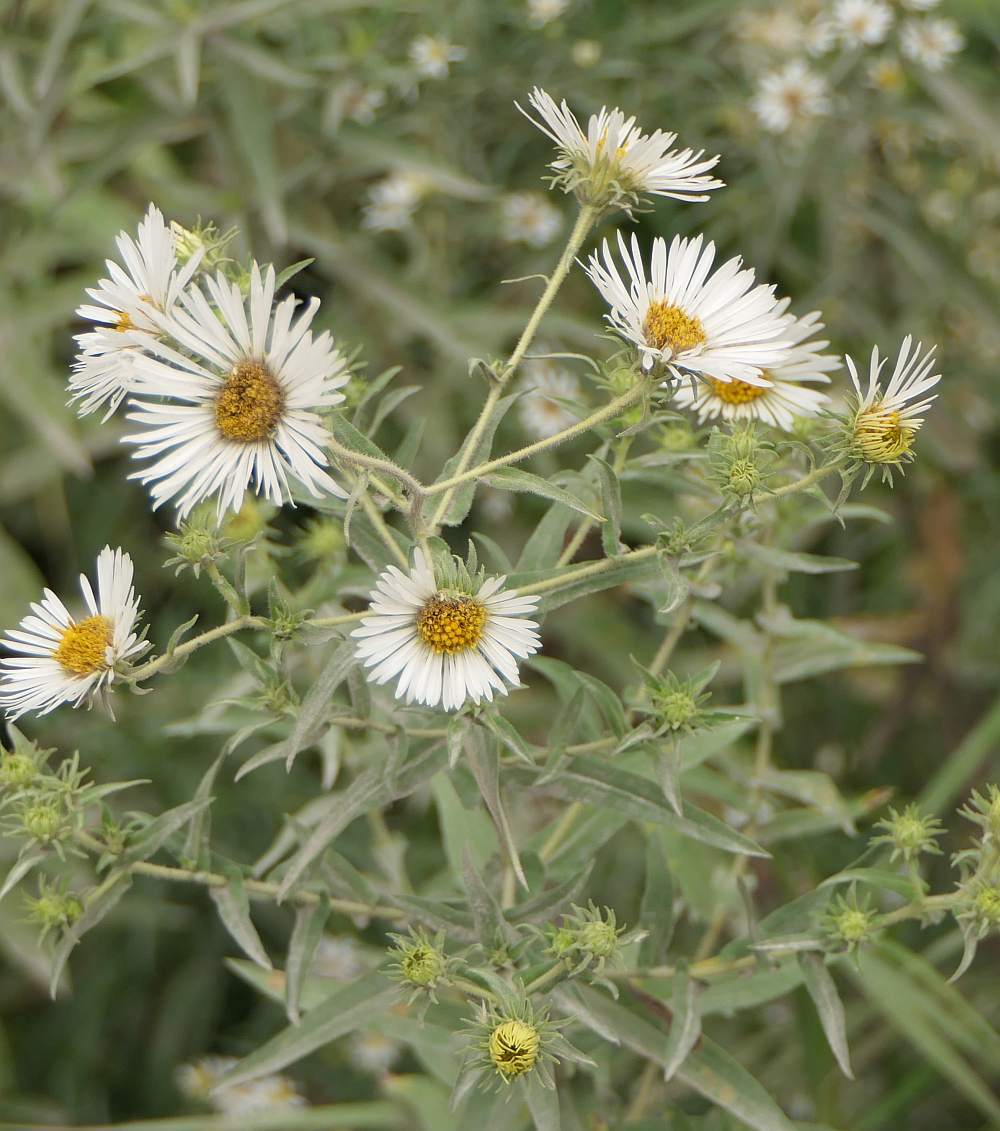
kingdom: Plantae
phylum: Tracheophyta
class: Magnoliopsida
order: Asterales
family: Asteraceae
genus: Symphyotrichum
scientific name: Symphyotrichum novae-angliae
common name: Michaelmas daisy
